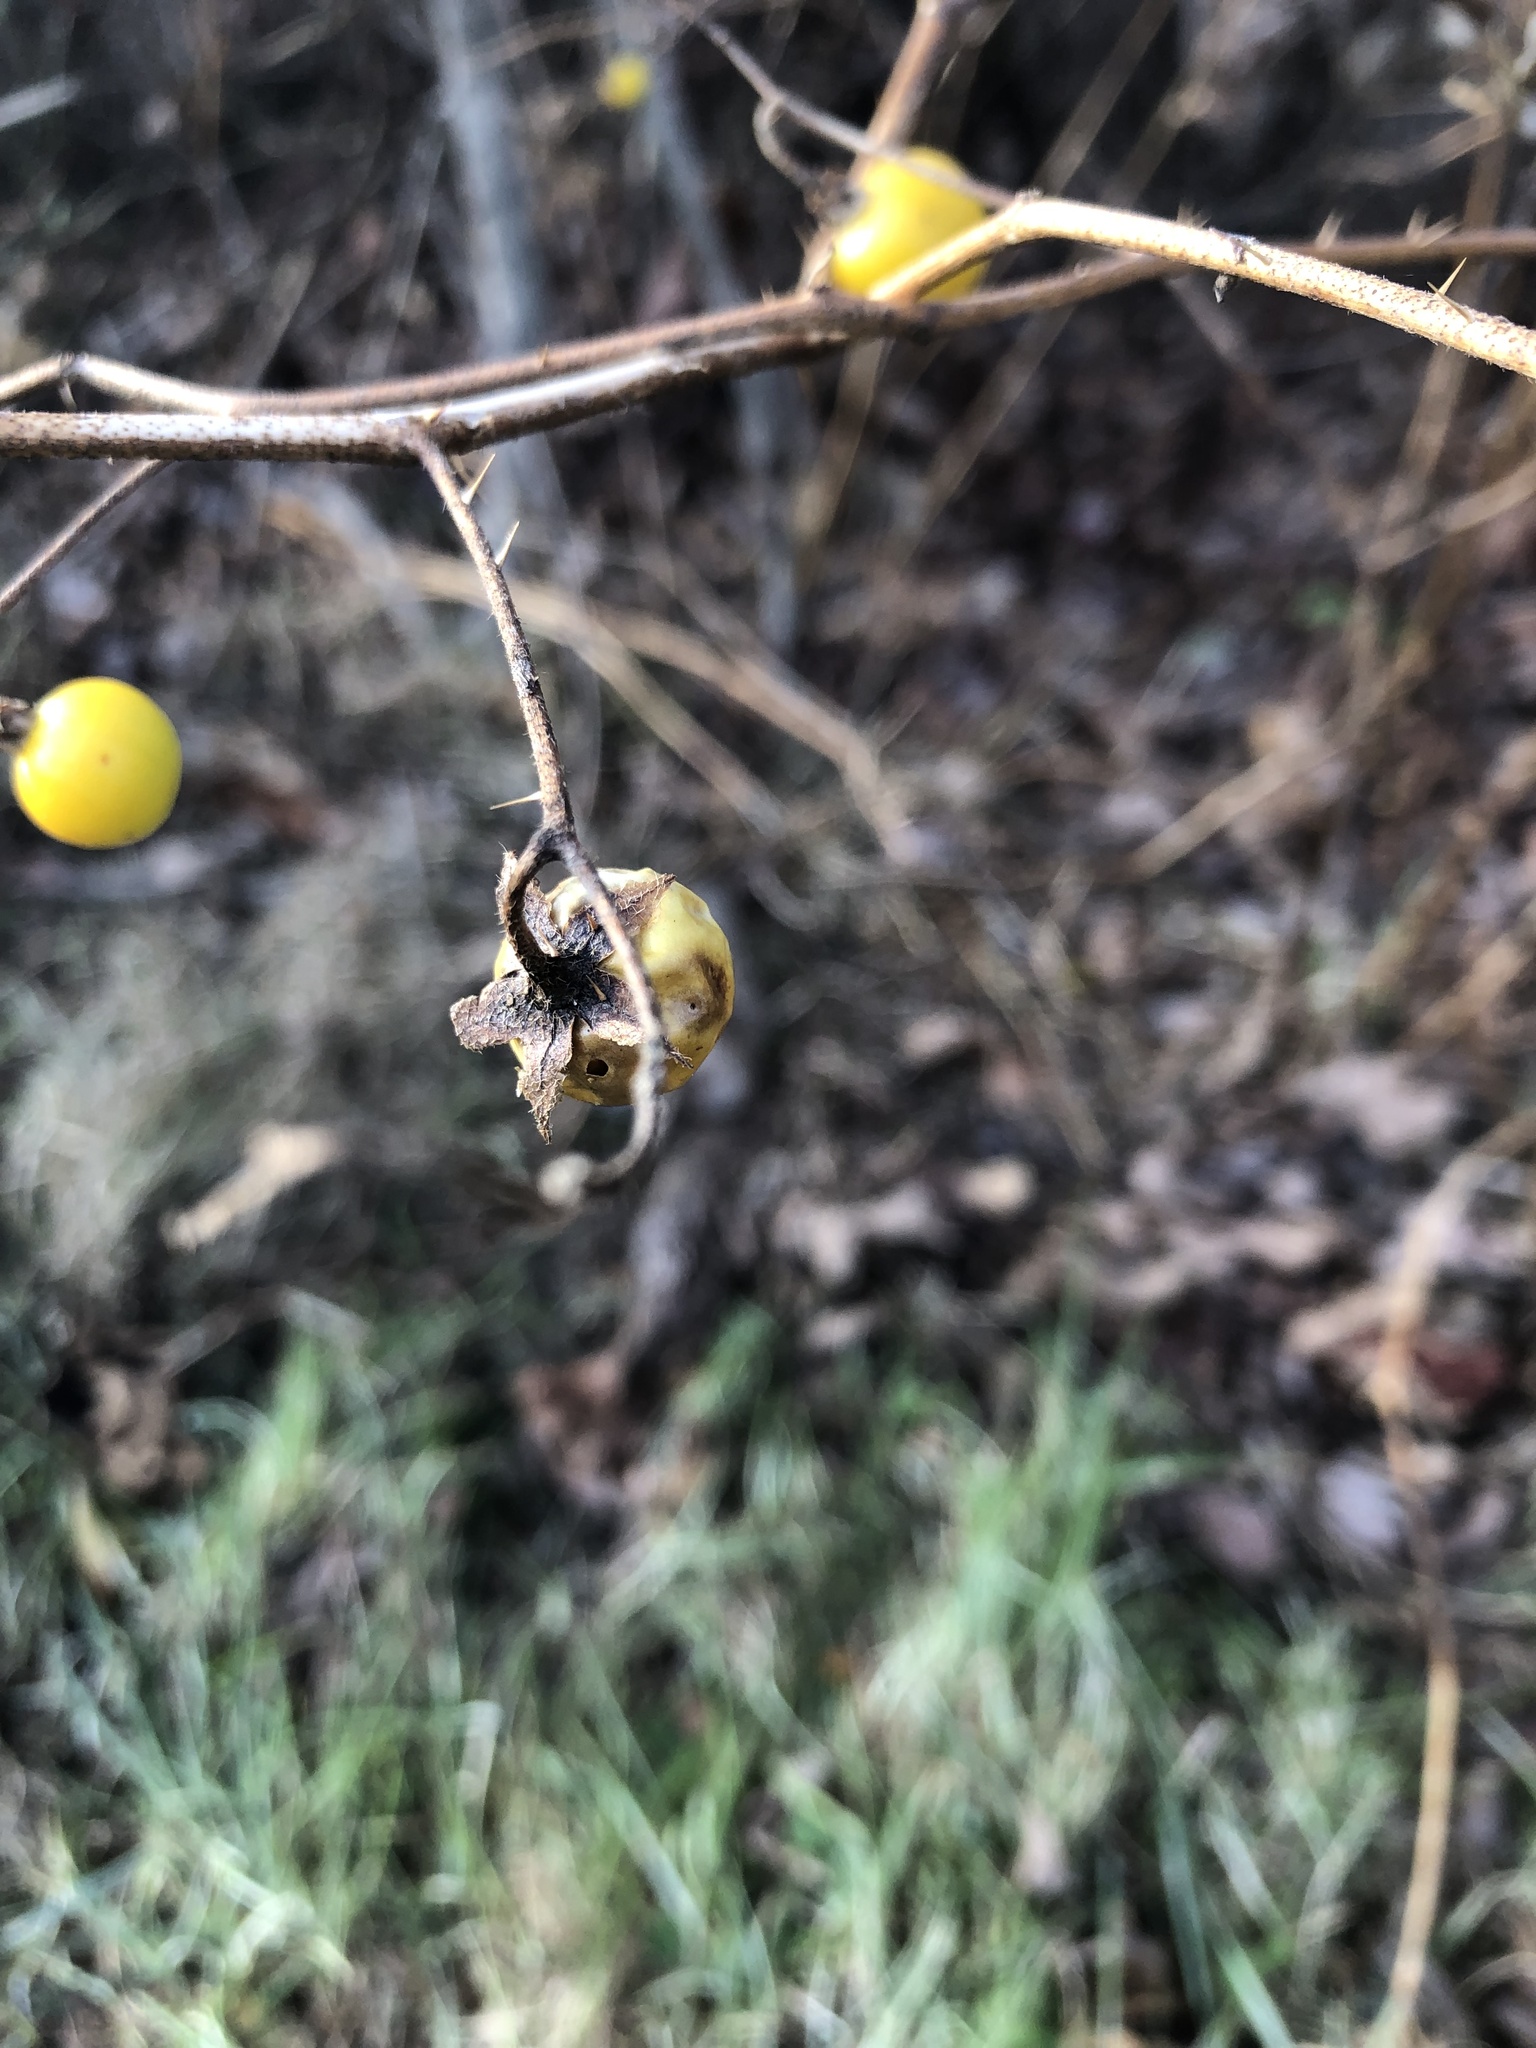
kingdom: Plantae
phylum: Tracheophyta
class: Magnoliopsida
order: Solanales
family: Solanaceae
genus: Solanum
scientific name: Solanum carolinense
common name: Horse-nettle
